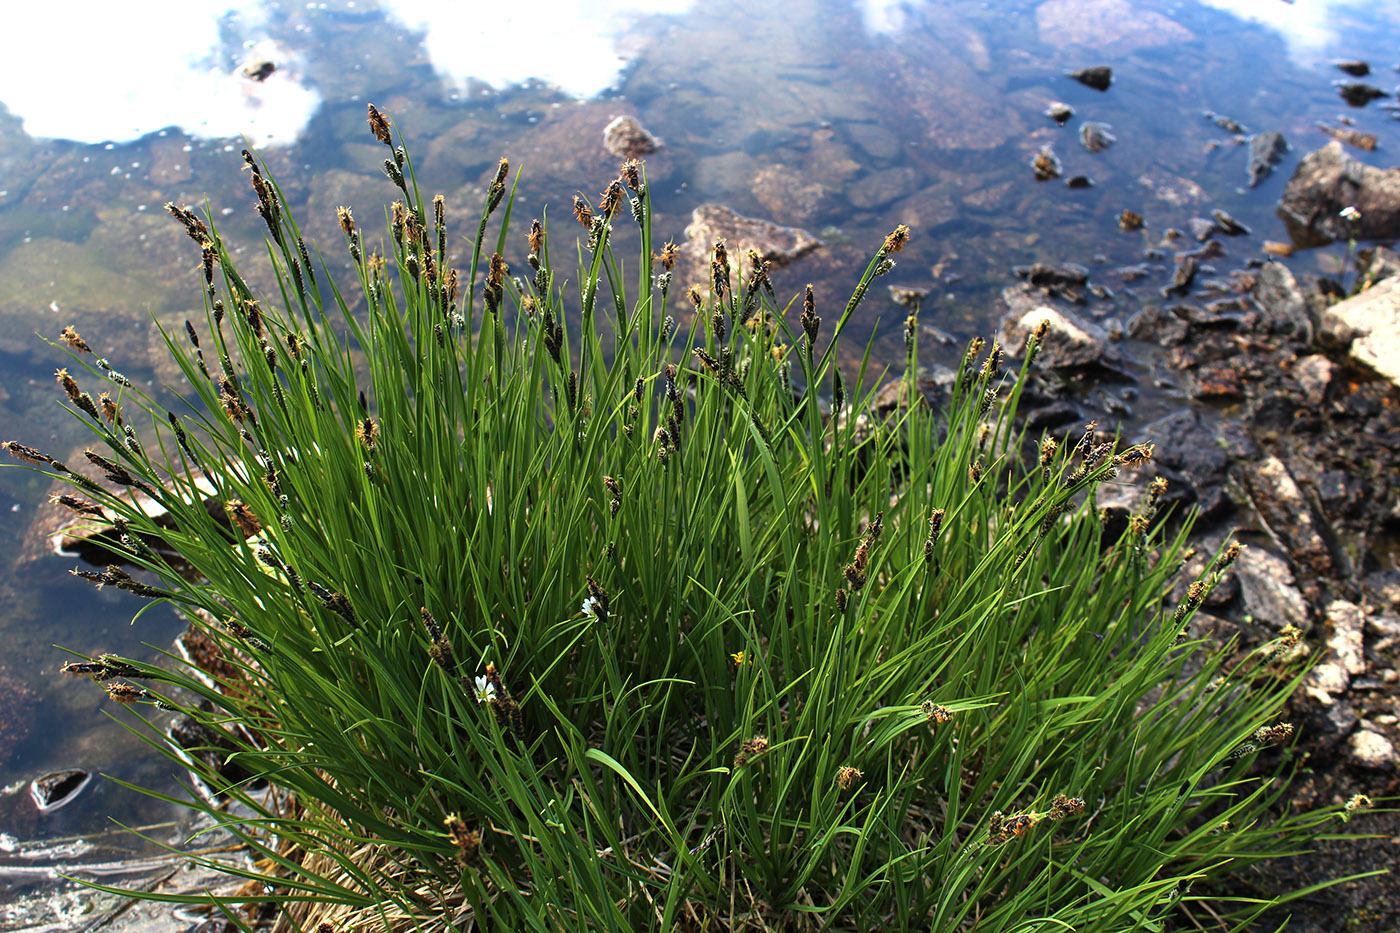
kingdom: Plantae
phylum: Tracheophyta
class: Liliopsida
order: Poales
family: Cyperaceae
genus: Carex
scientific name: Carex nigra
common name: Common sedge
